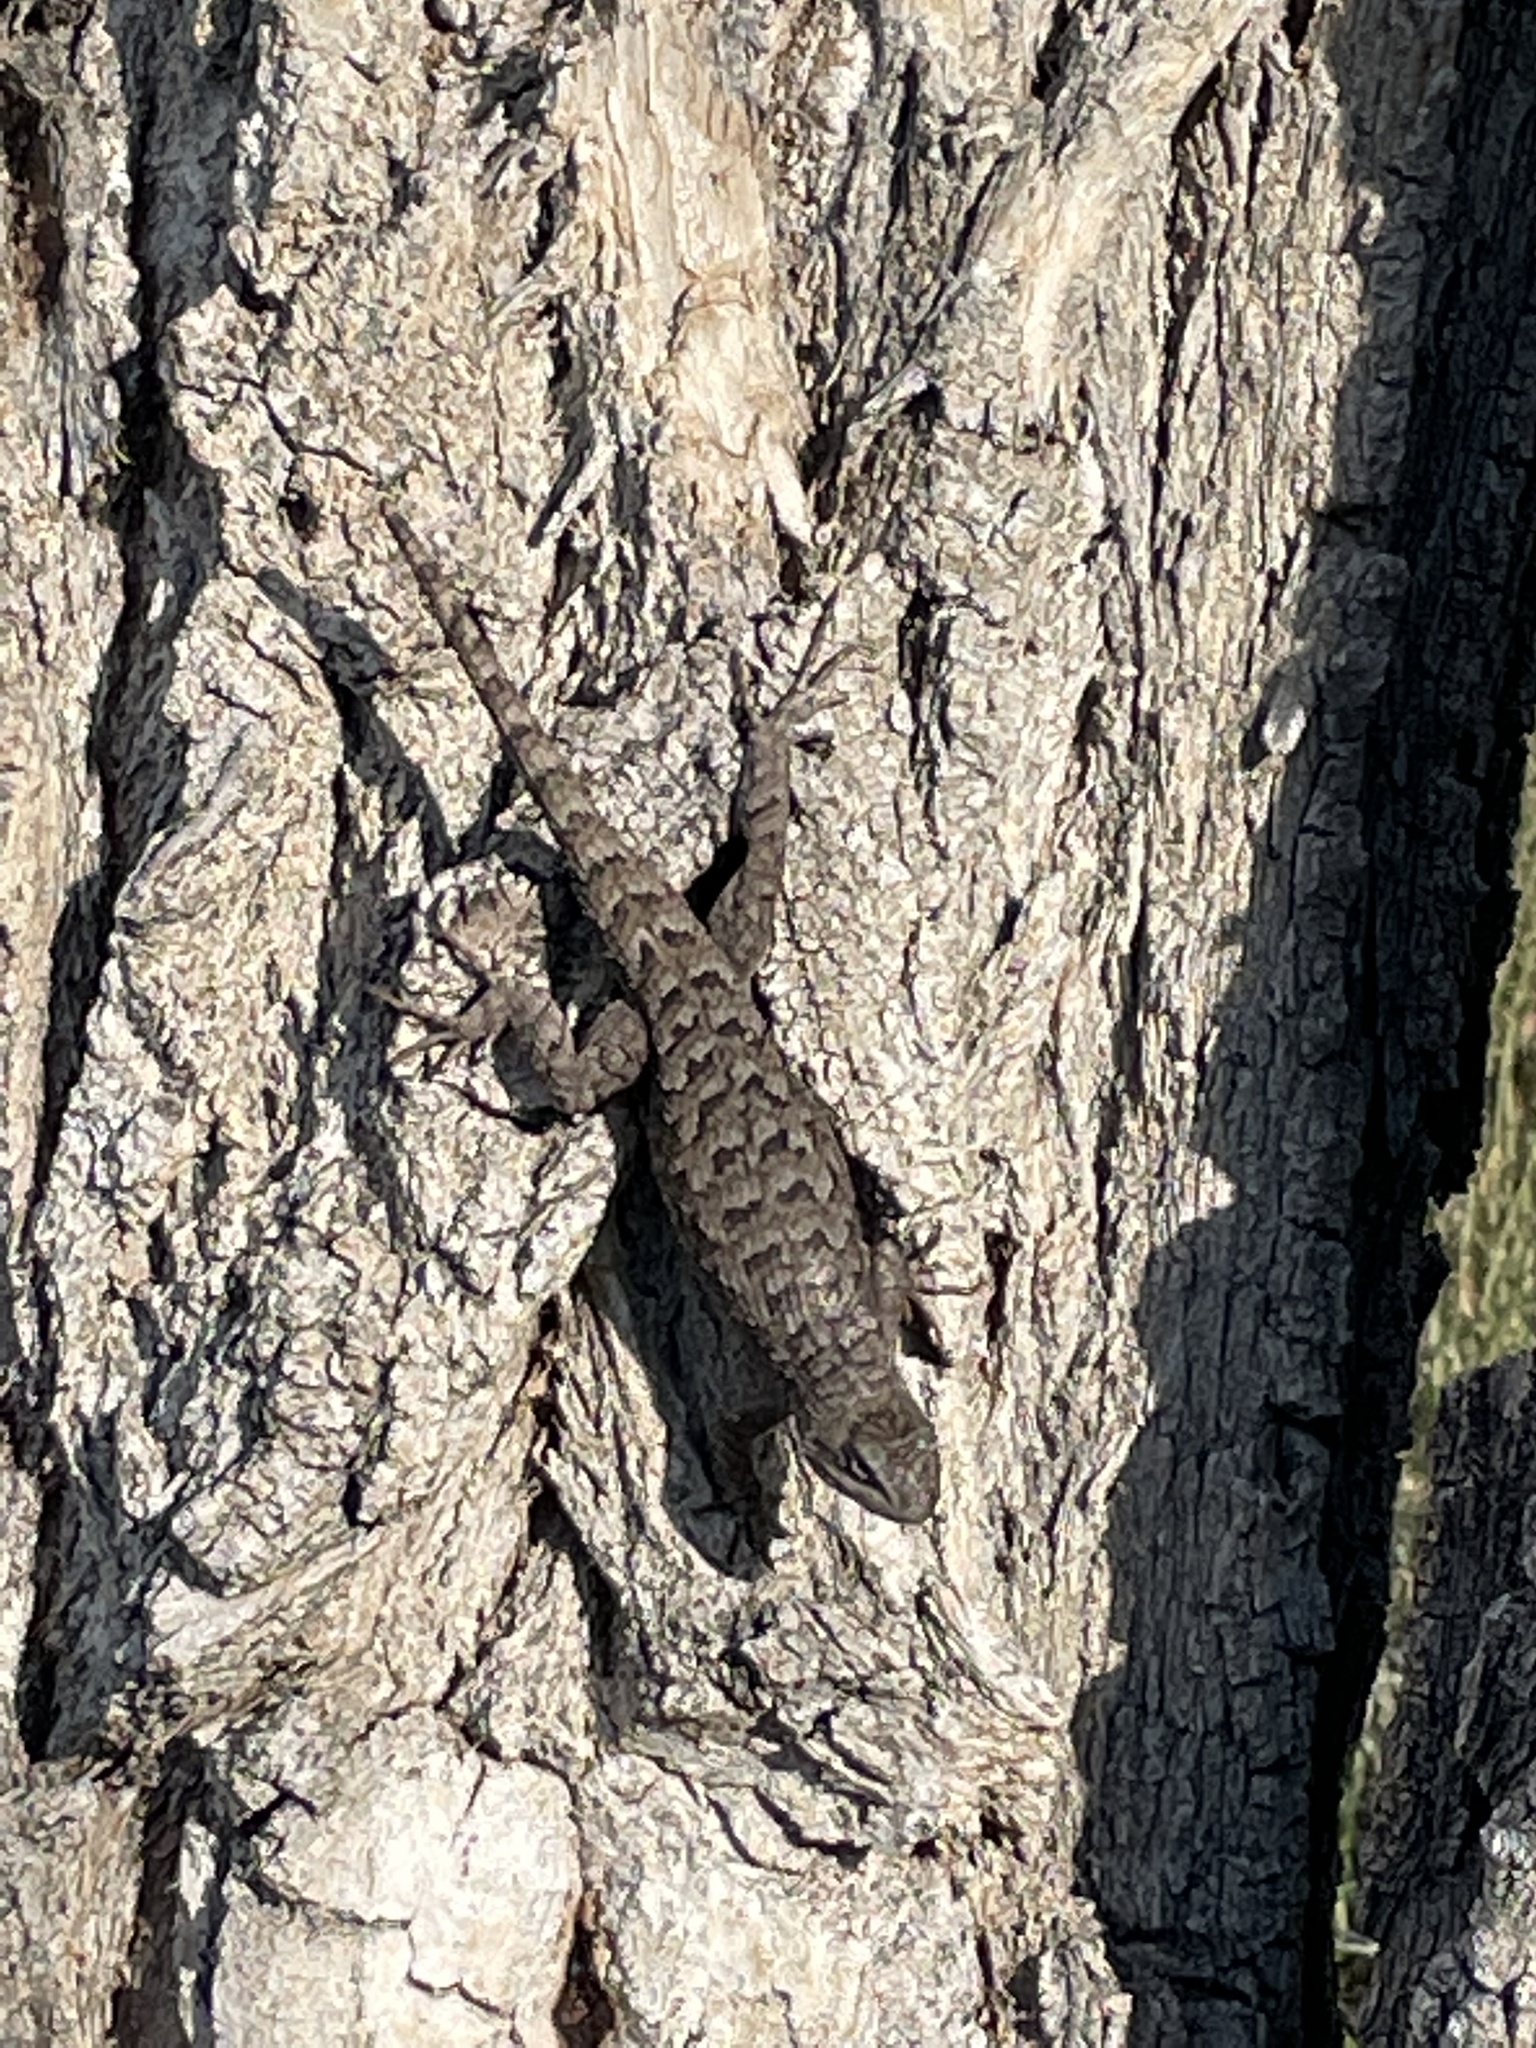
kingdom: Animalia
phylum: Chordata
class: Squamata
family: Phrynosomatidae
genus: Sceloporus
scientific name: Sceloporus occidentalis
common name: Western fence lizard
